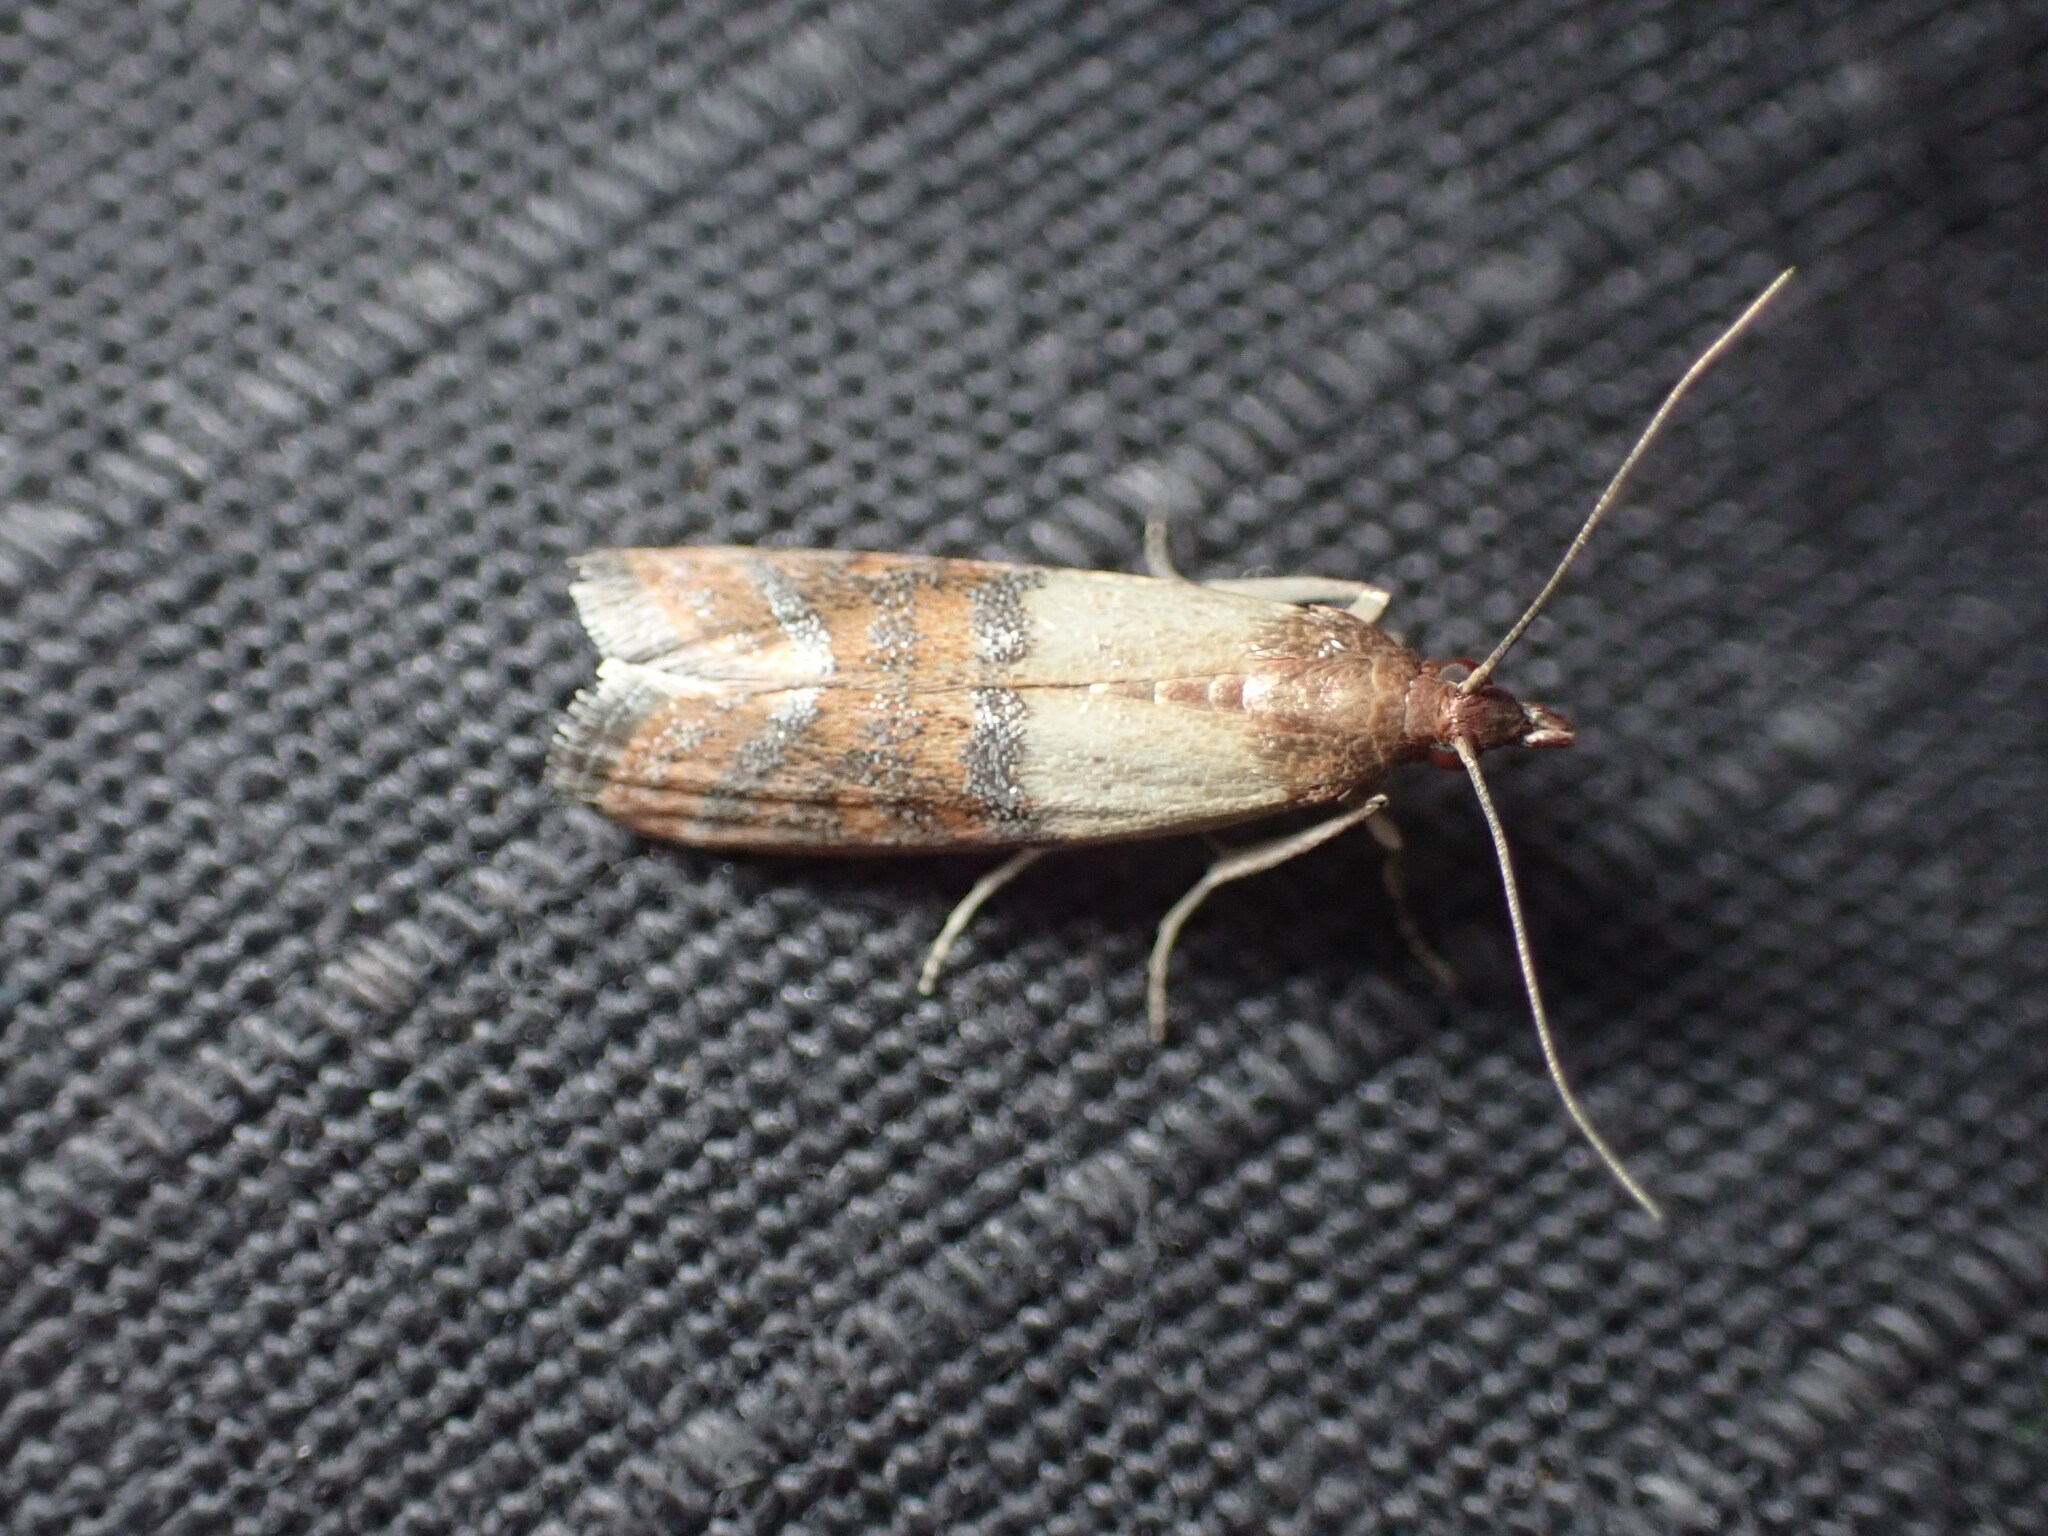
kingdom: Animalia
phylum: Arthropoda
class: Insecta
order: Lepidoptera
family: Pyralidae
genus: Plodia
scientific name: Plodia interpunctella
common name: Indian meal moth
